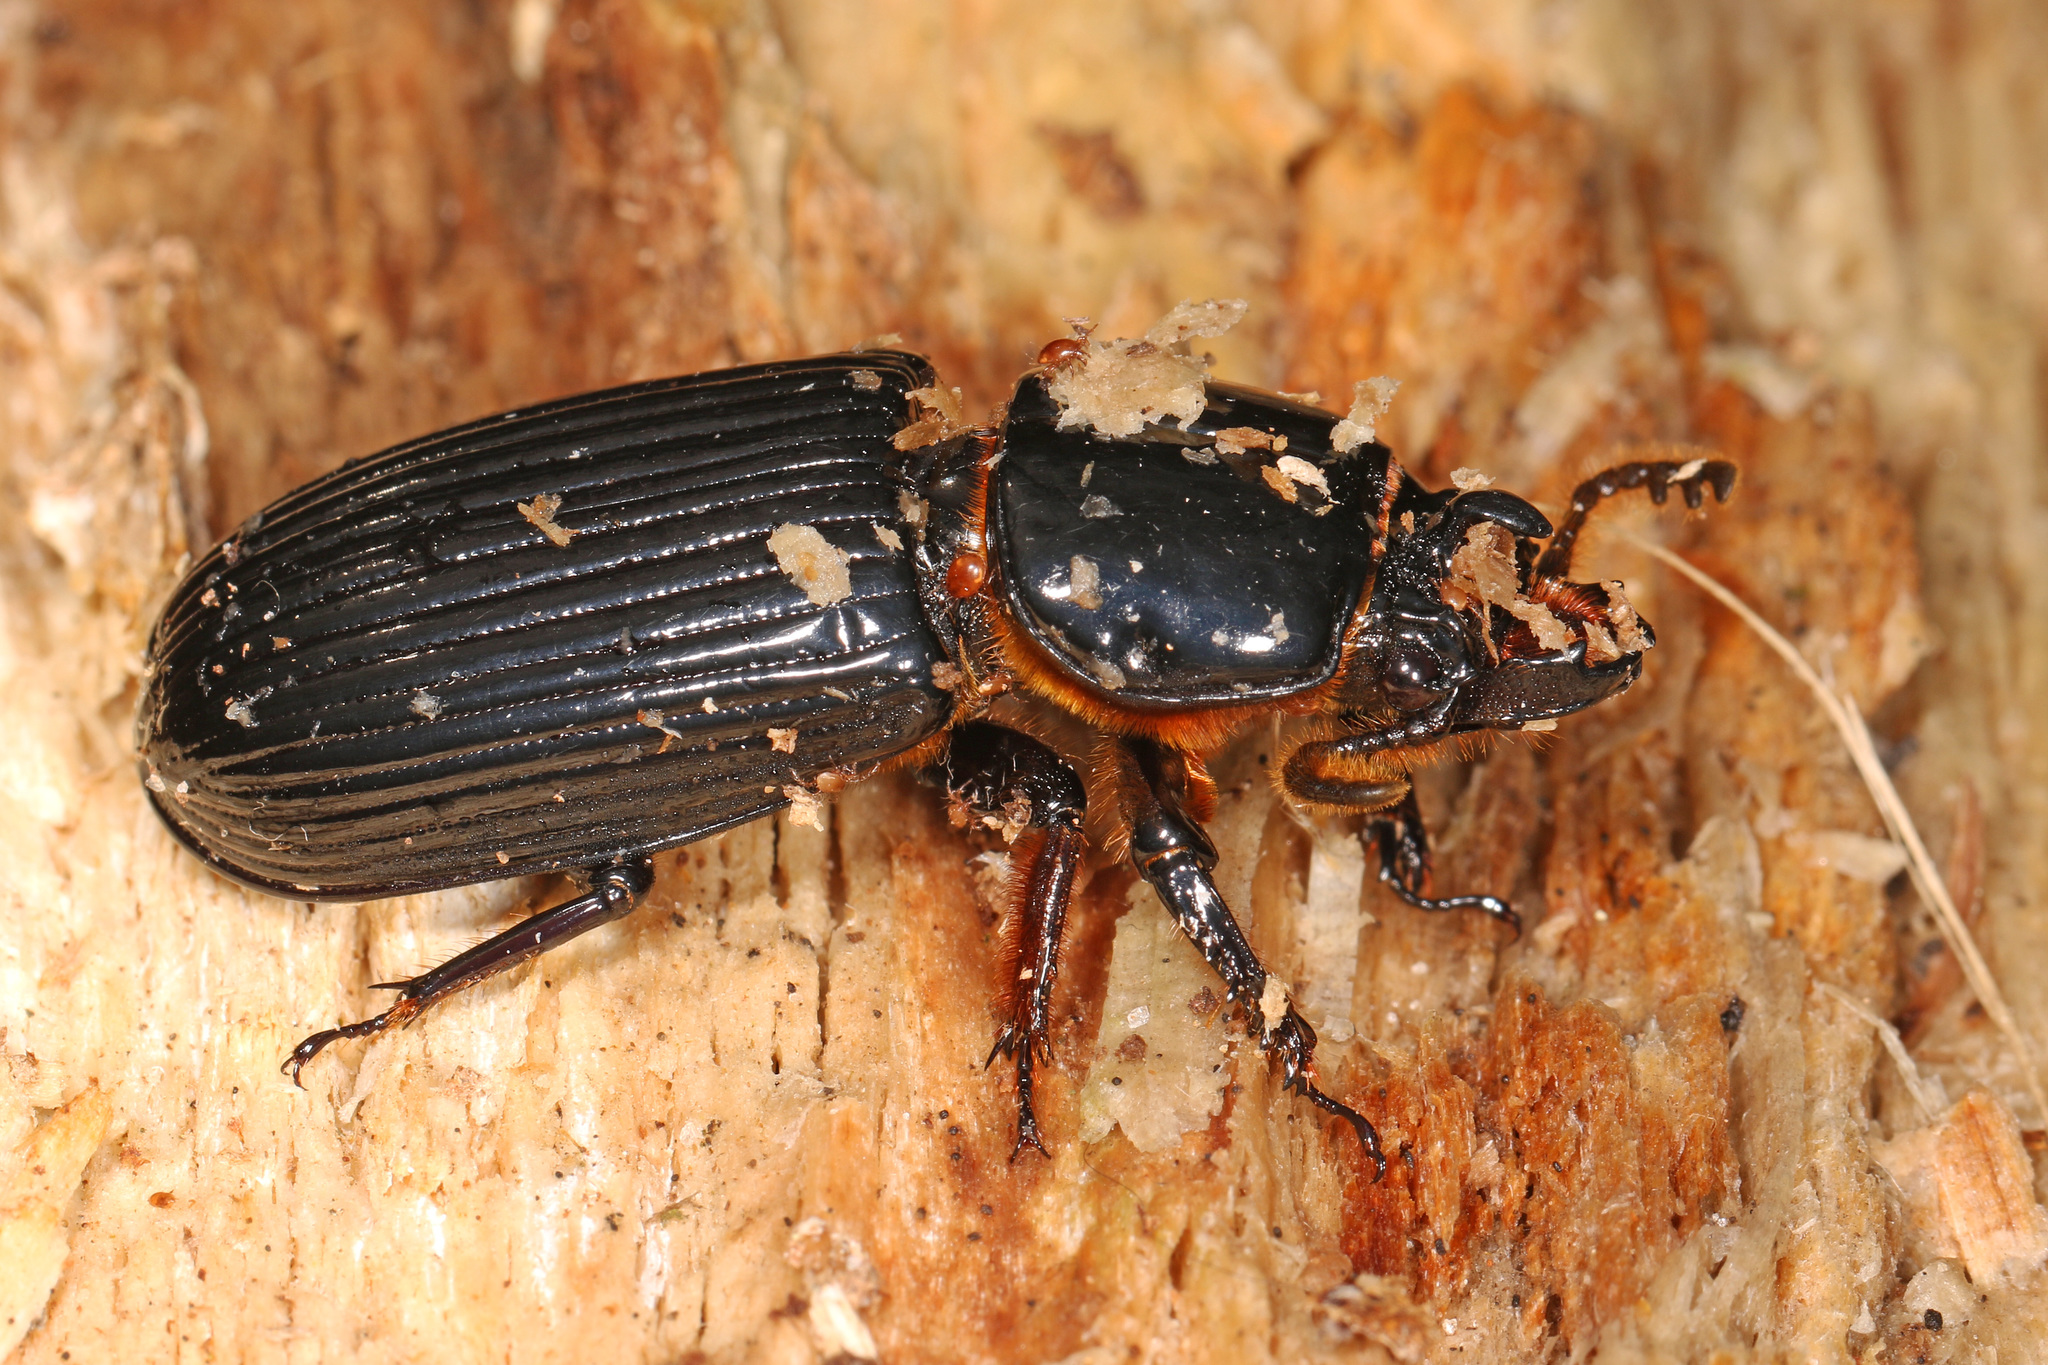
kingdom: Animalia
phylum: Arthropoda
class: Insecta
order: Coleoptera
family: Passalidae
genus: Odontotaenius
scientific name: Odontotaenius disjunctus
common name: Patent leather beetle
